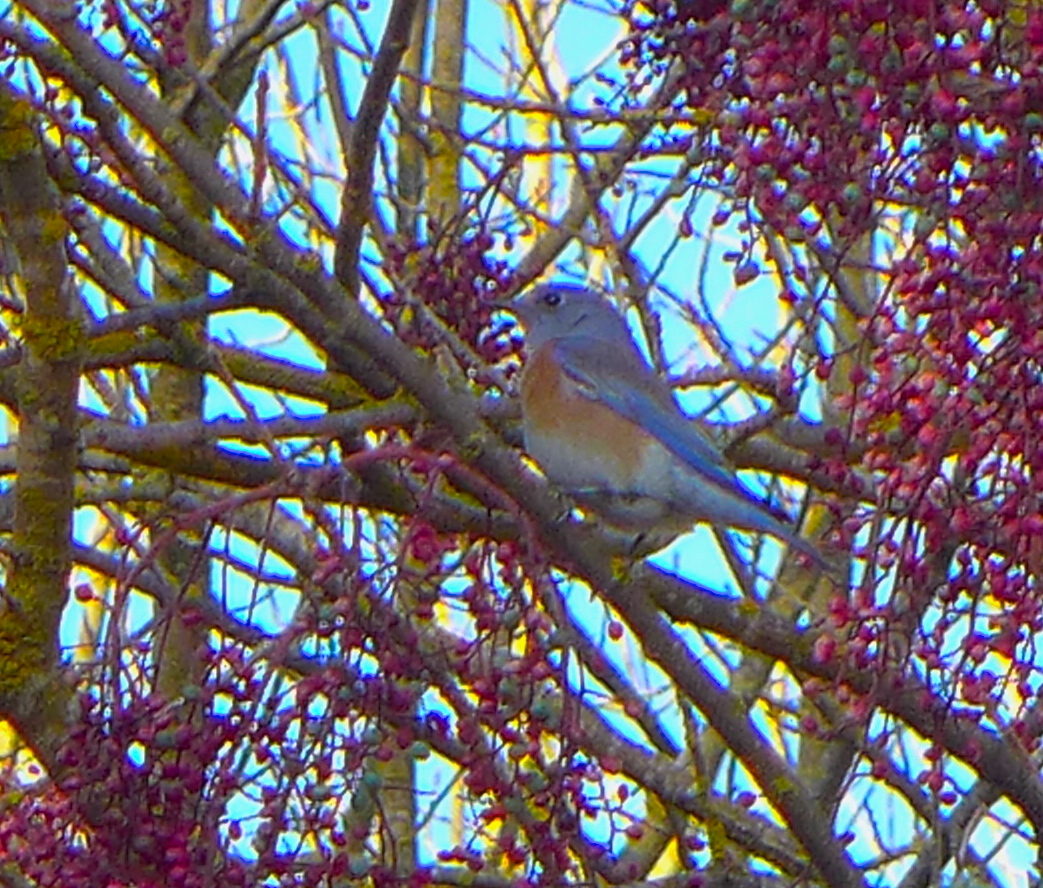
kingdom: Animalia
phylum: Chordata
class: Aves
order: Passeriformes
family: Turdidae
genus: Sialia
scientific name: Sialia mexicana
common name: Western bluebird
